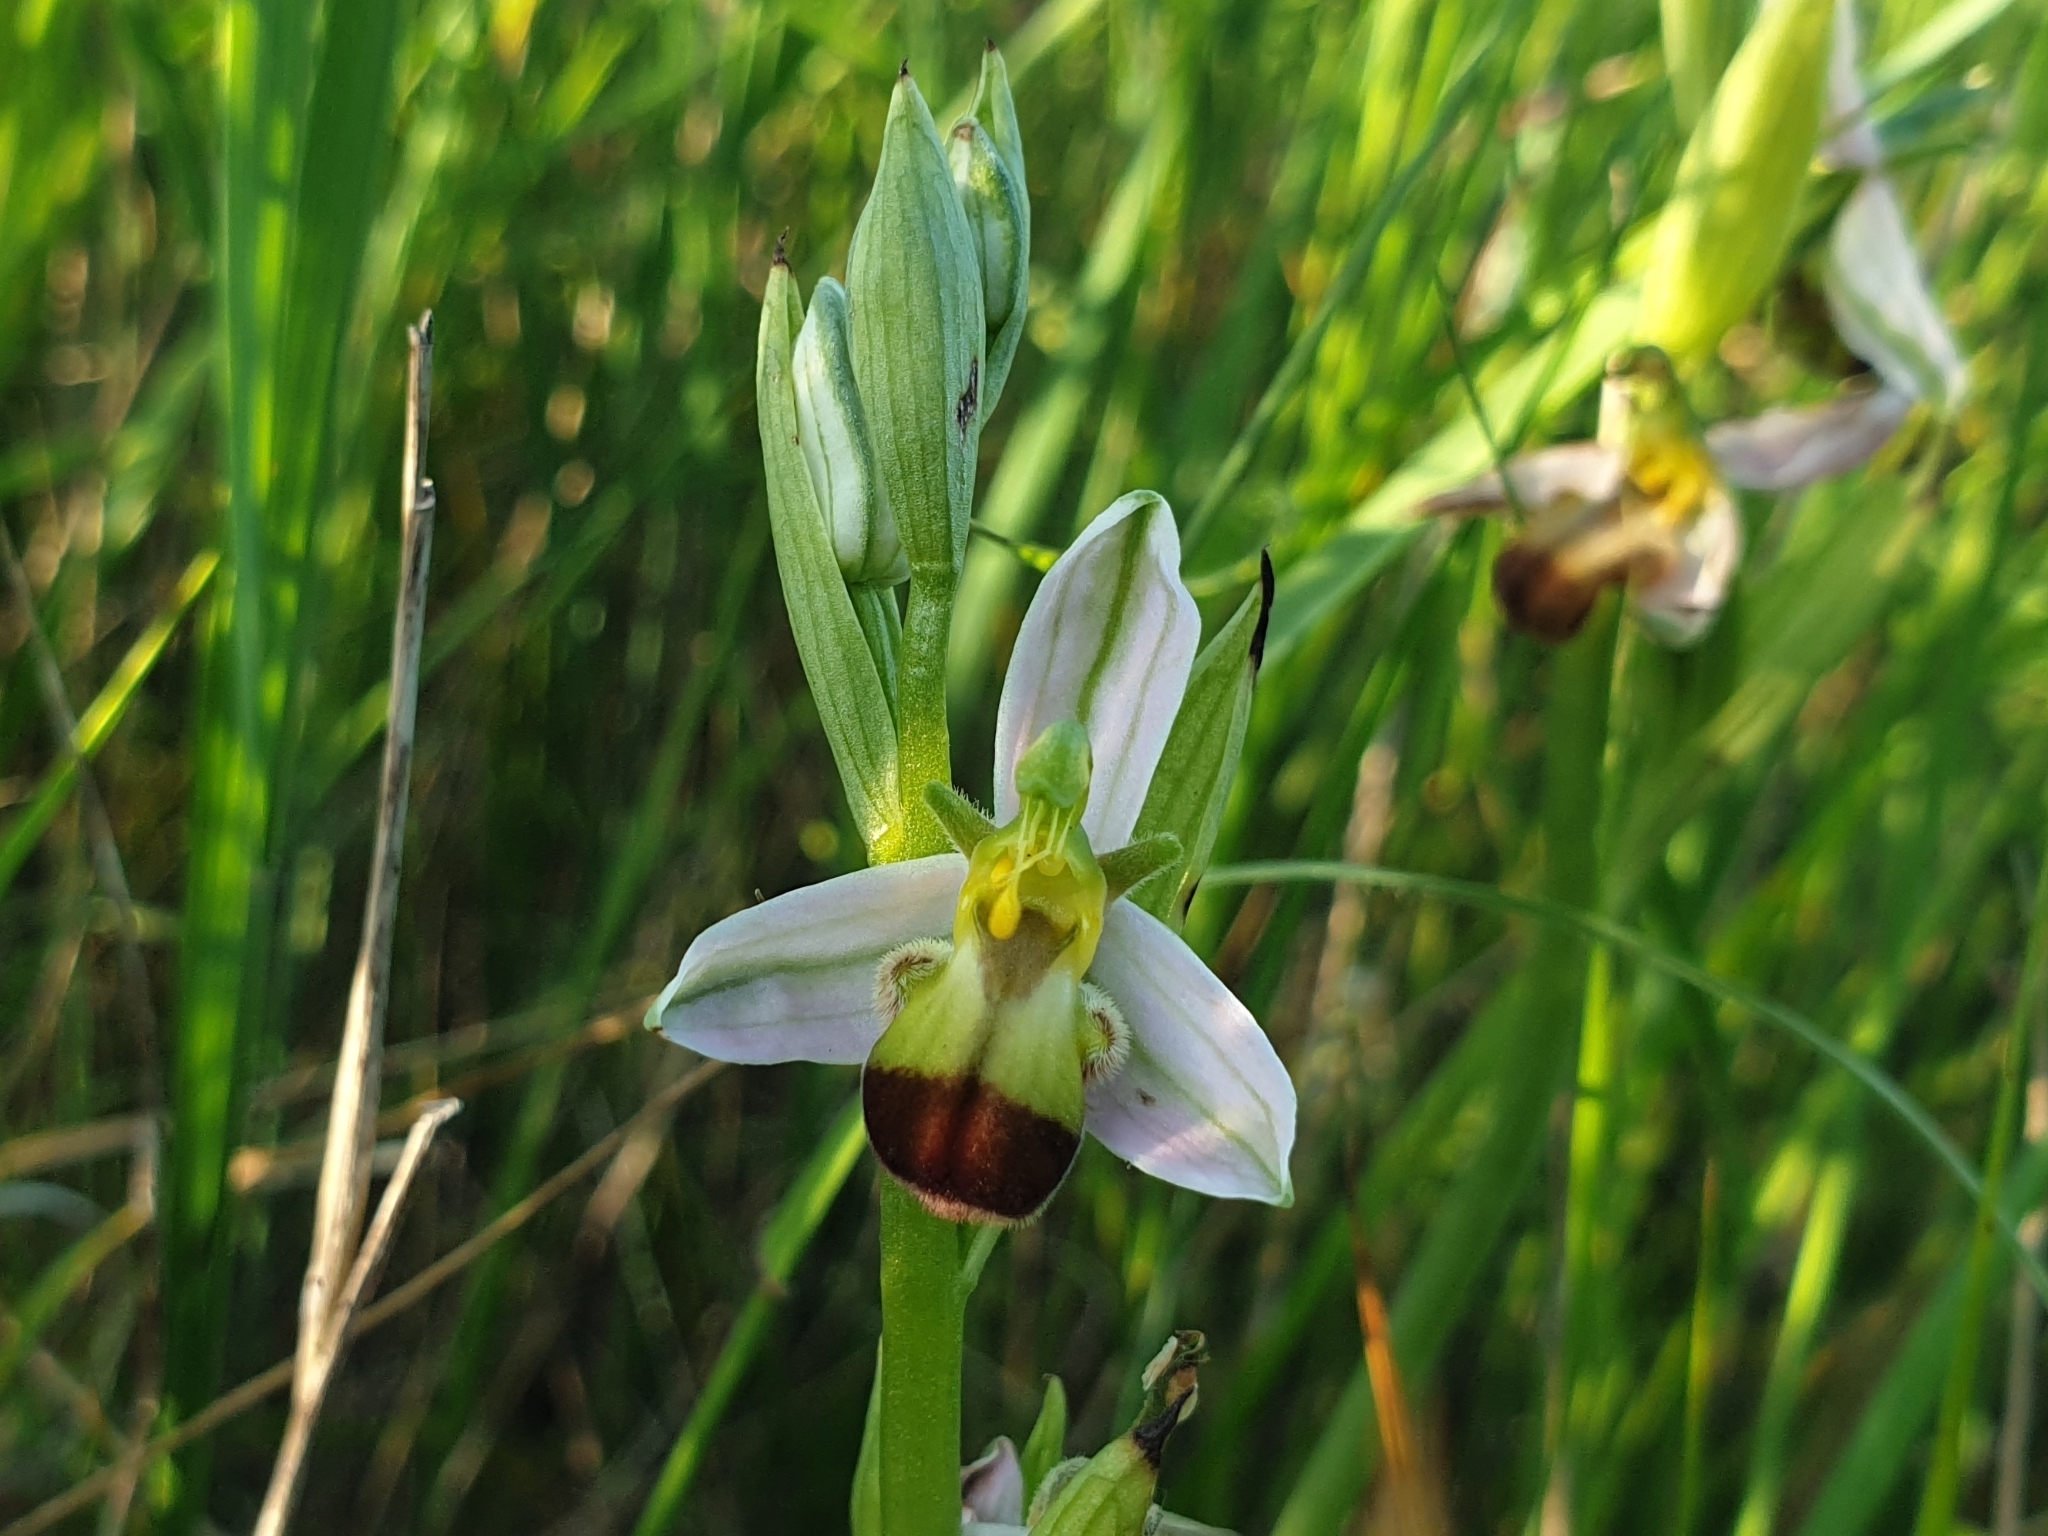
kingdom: Plantae
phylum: Tracheophyta
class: Liliopsida
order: Asparagales
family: Orchidaceae
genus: Ophrys
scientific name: Ophrys apifera
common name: Bee orchid
